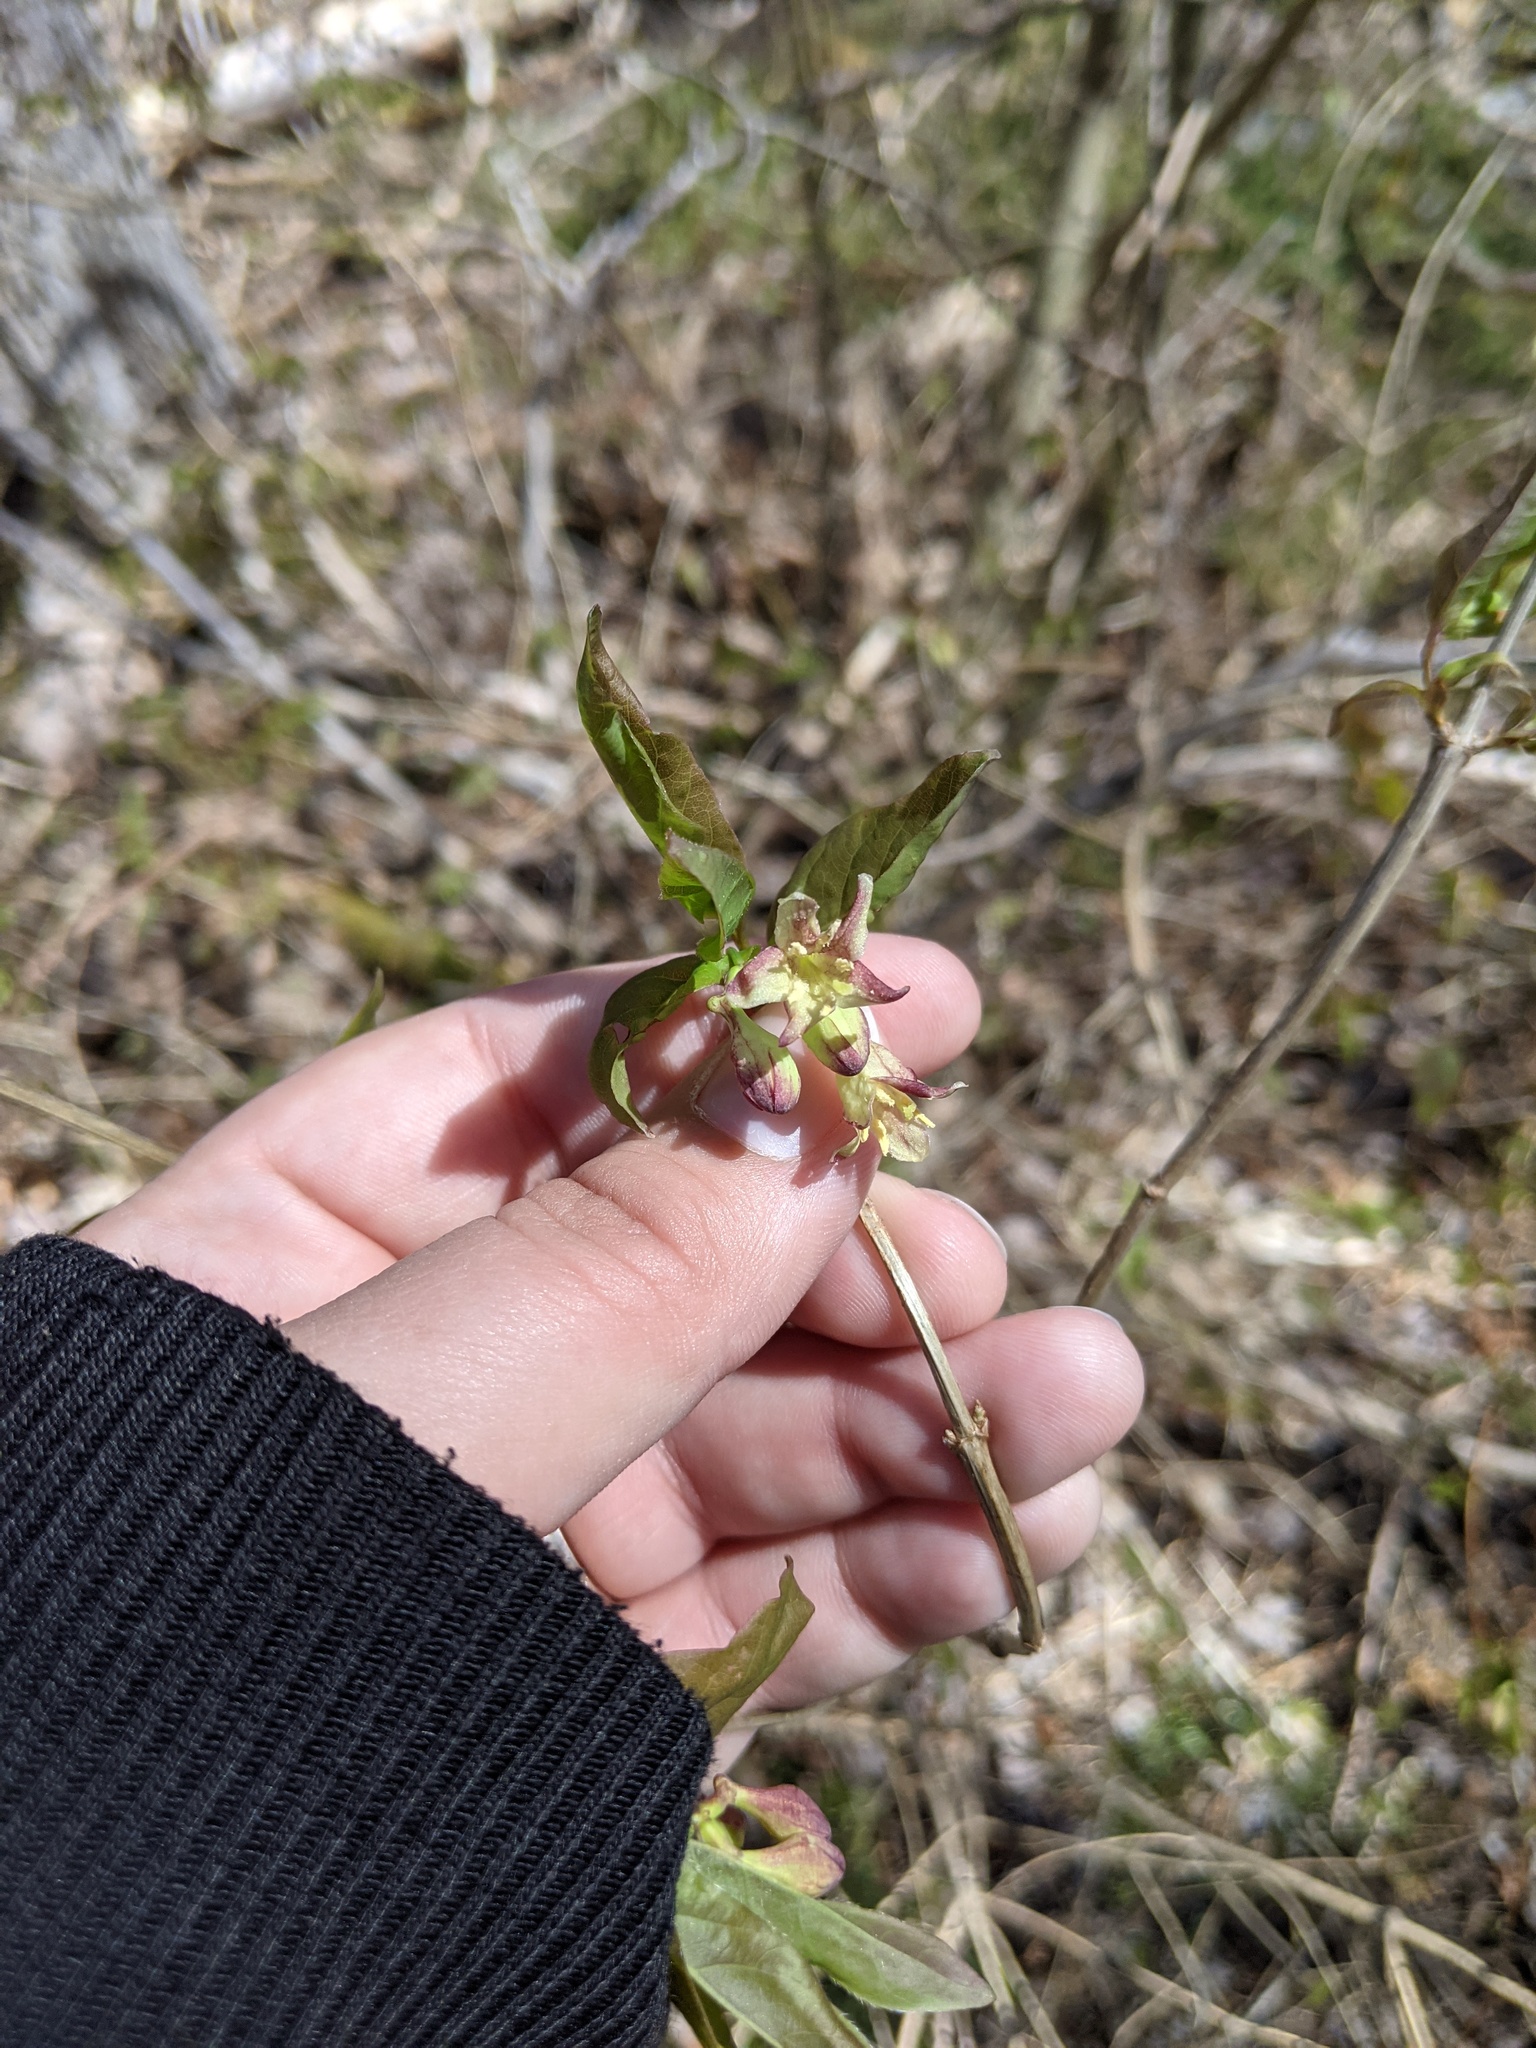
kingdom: Plantae
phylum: Tracheophyta
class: Magnoliopsida
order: Dipsacales
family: Caprifoliaceae
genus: Lonicera
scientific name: Lonicera canadensis
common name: American fly-honeysuckle
